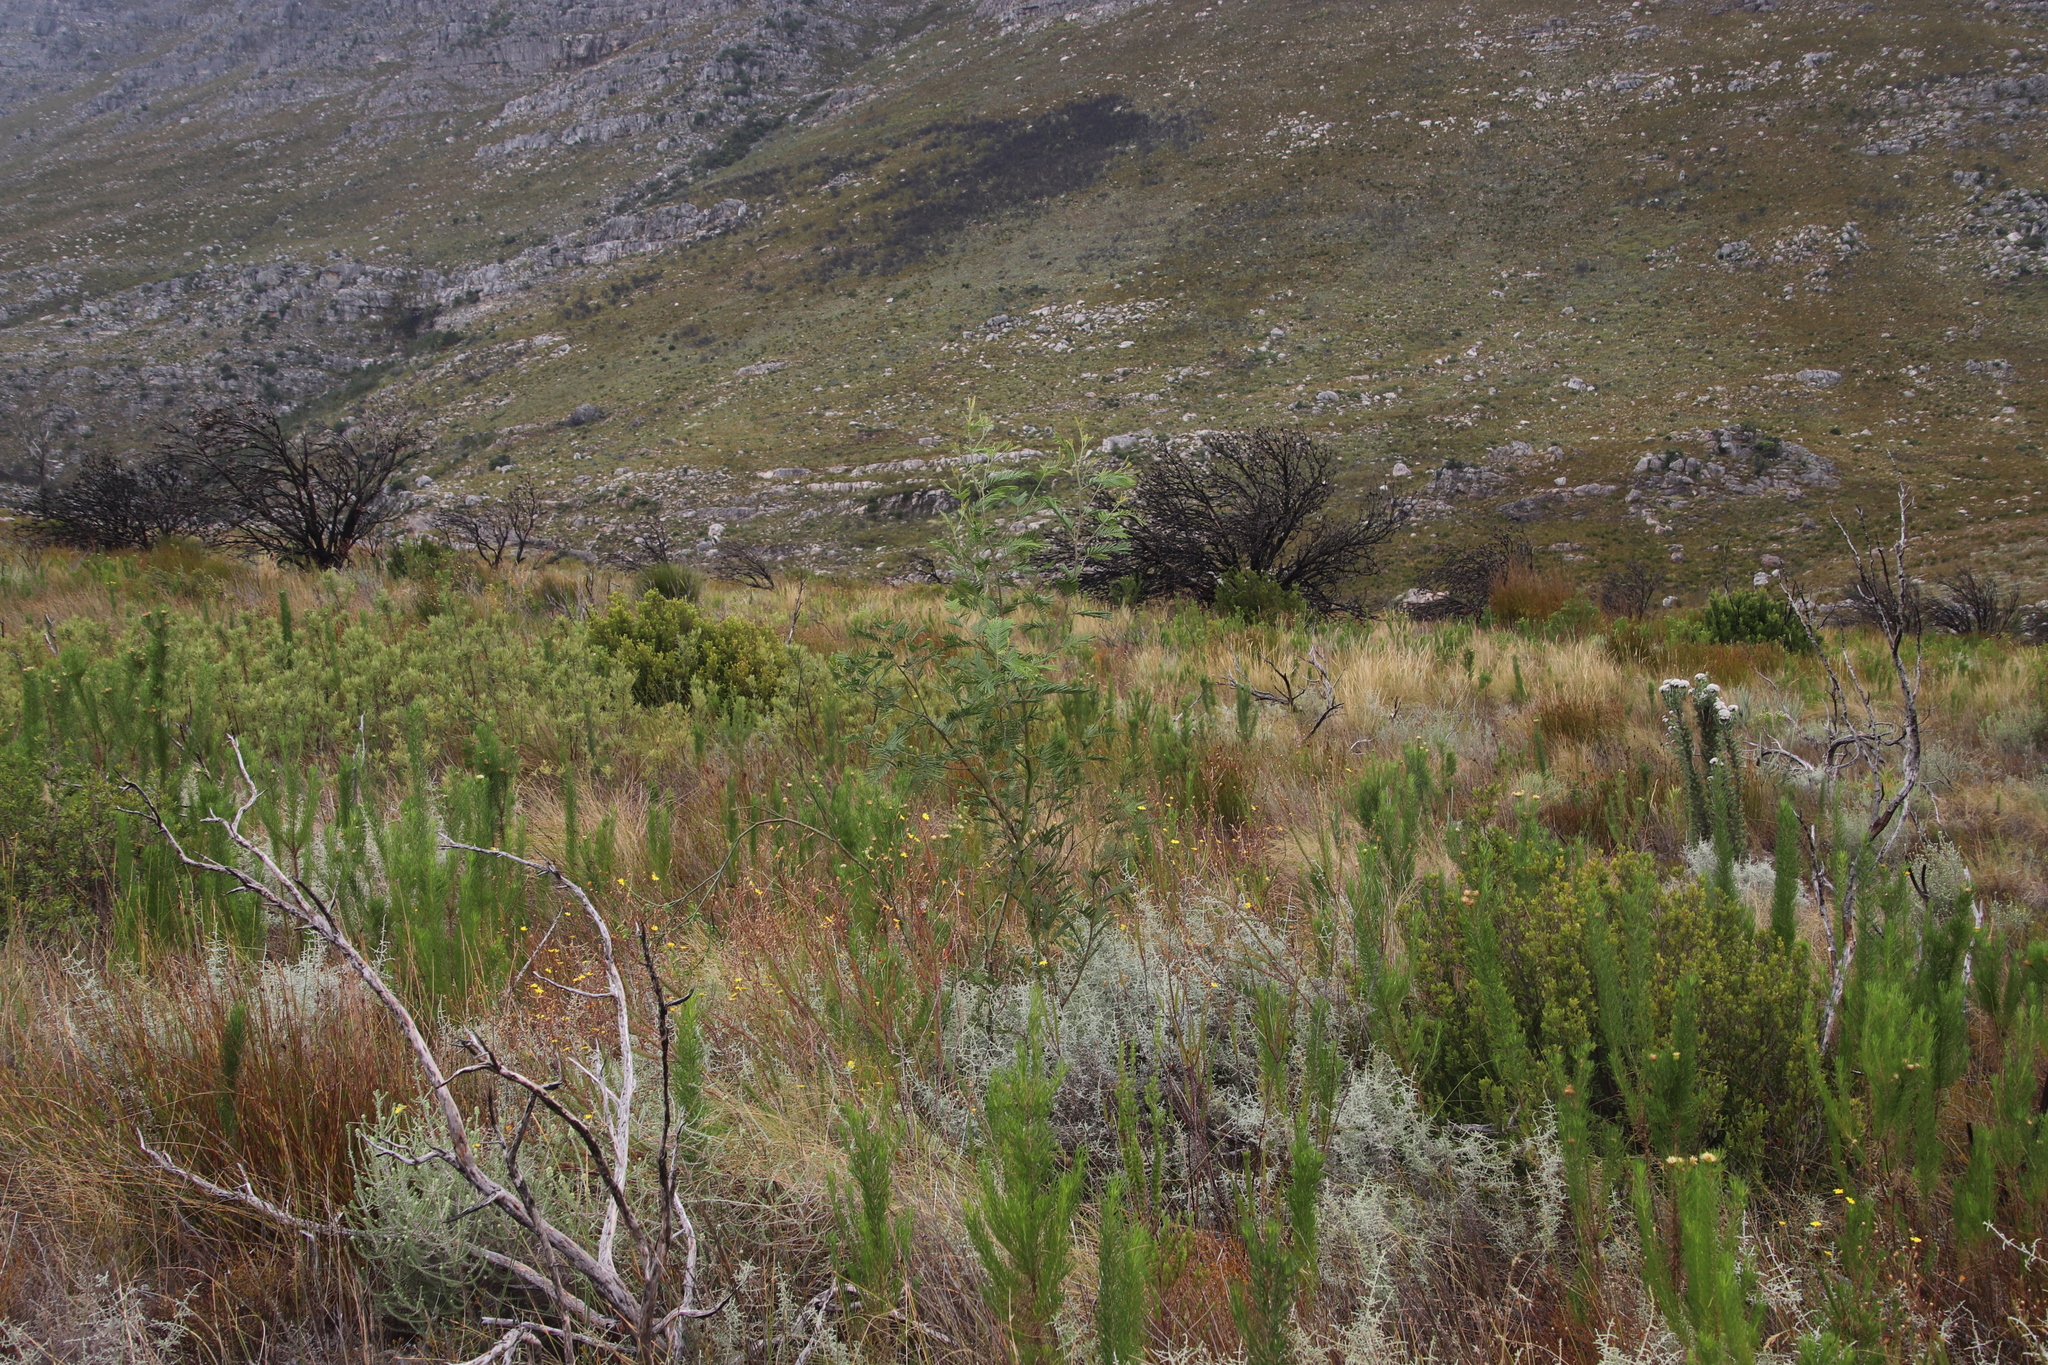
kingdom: Plantae
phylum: Tracheophyta
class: Magnoliopsida
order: Fabales
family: Fabaceae
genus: Acacia
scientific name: Acacia mearnsii
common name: Black wattle
